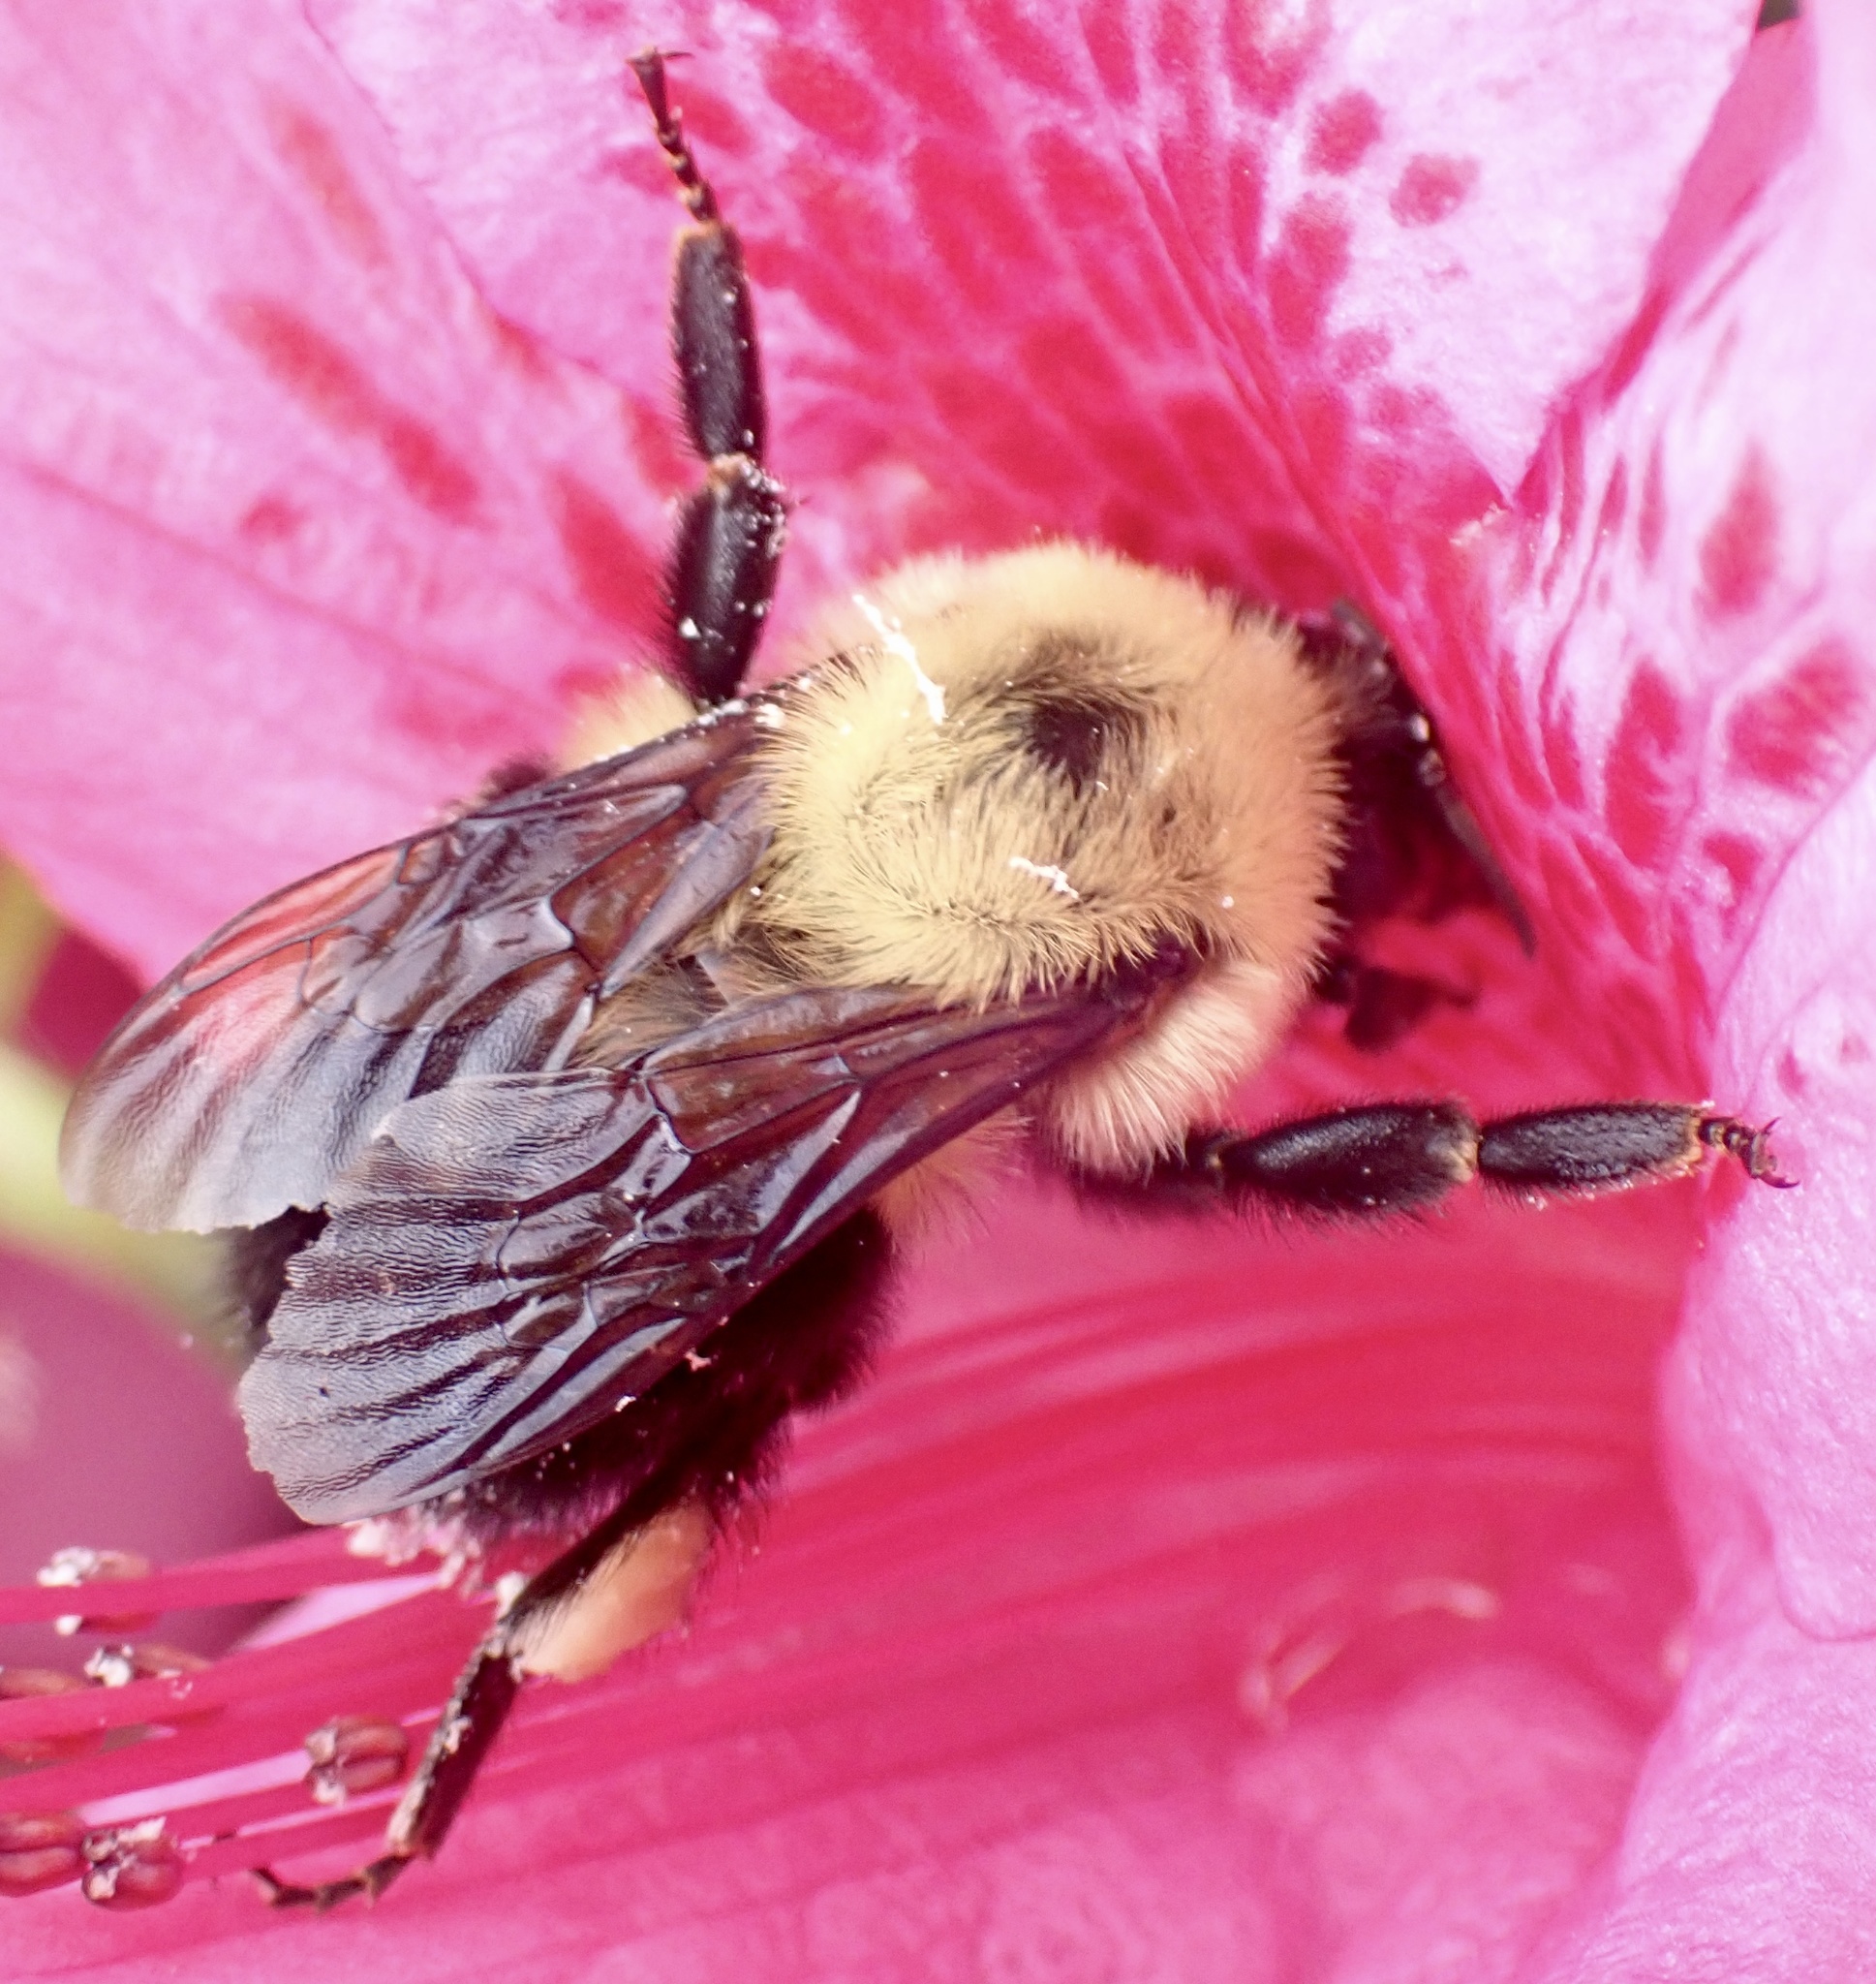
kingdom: Animalia
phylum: Arthropoda
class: Insecta
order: Hymenoptera
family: Apidae
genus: Bombus
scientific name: Bombus bimaculatus
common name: Two-spotted bumble bee
